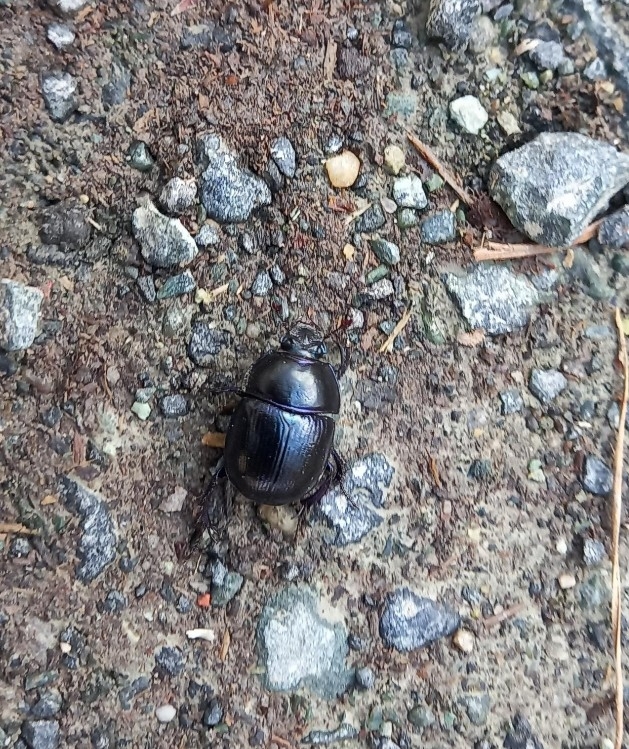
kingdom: Animalia
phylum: Arthropoda
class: Insecta
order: Coleoptera
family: Geotrupidae
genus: Anoplotrupes
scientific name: Anoplotrupes stercorosus
